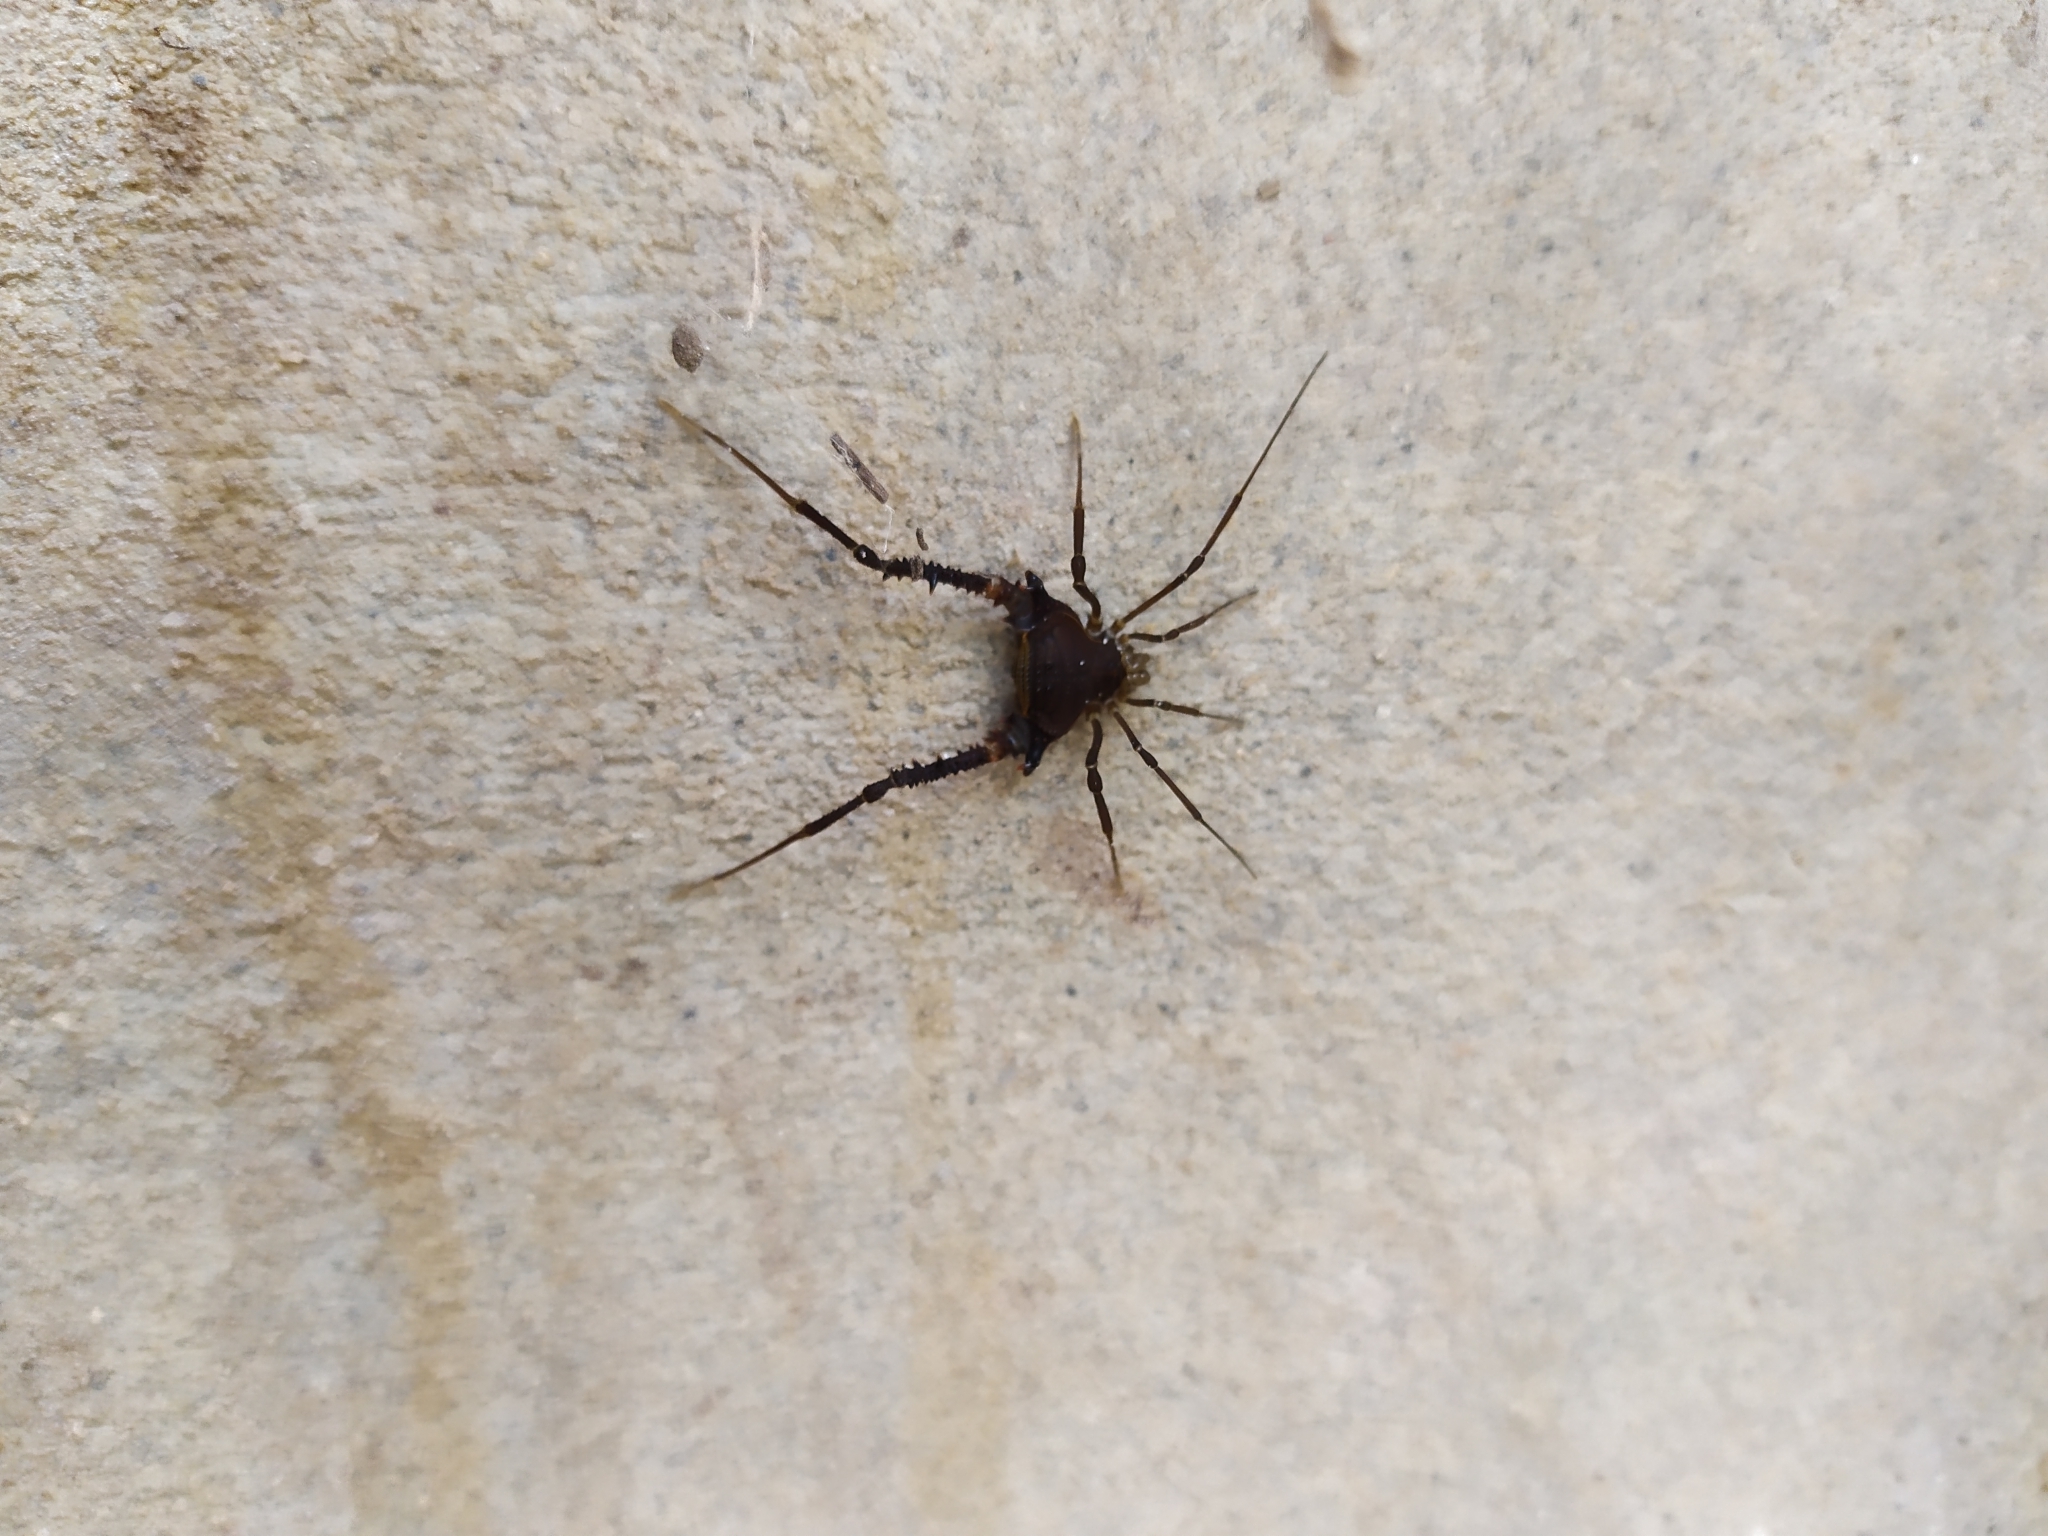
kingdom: Animalia
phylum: Arthropoda
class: Arachnida
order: Opiliones
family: Gonyleptidae
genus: Opisthoplatus
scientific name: Opisthoplatus prospicuus
